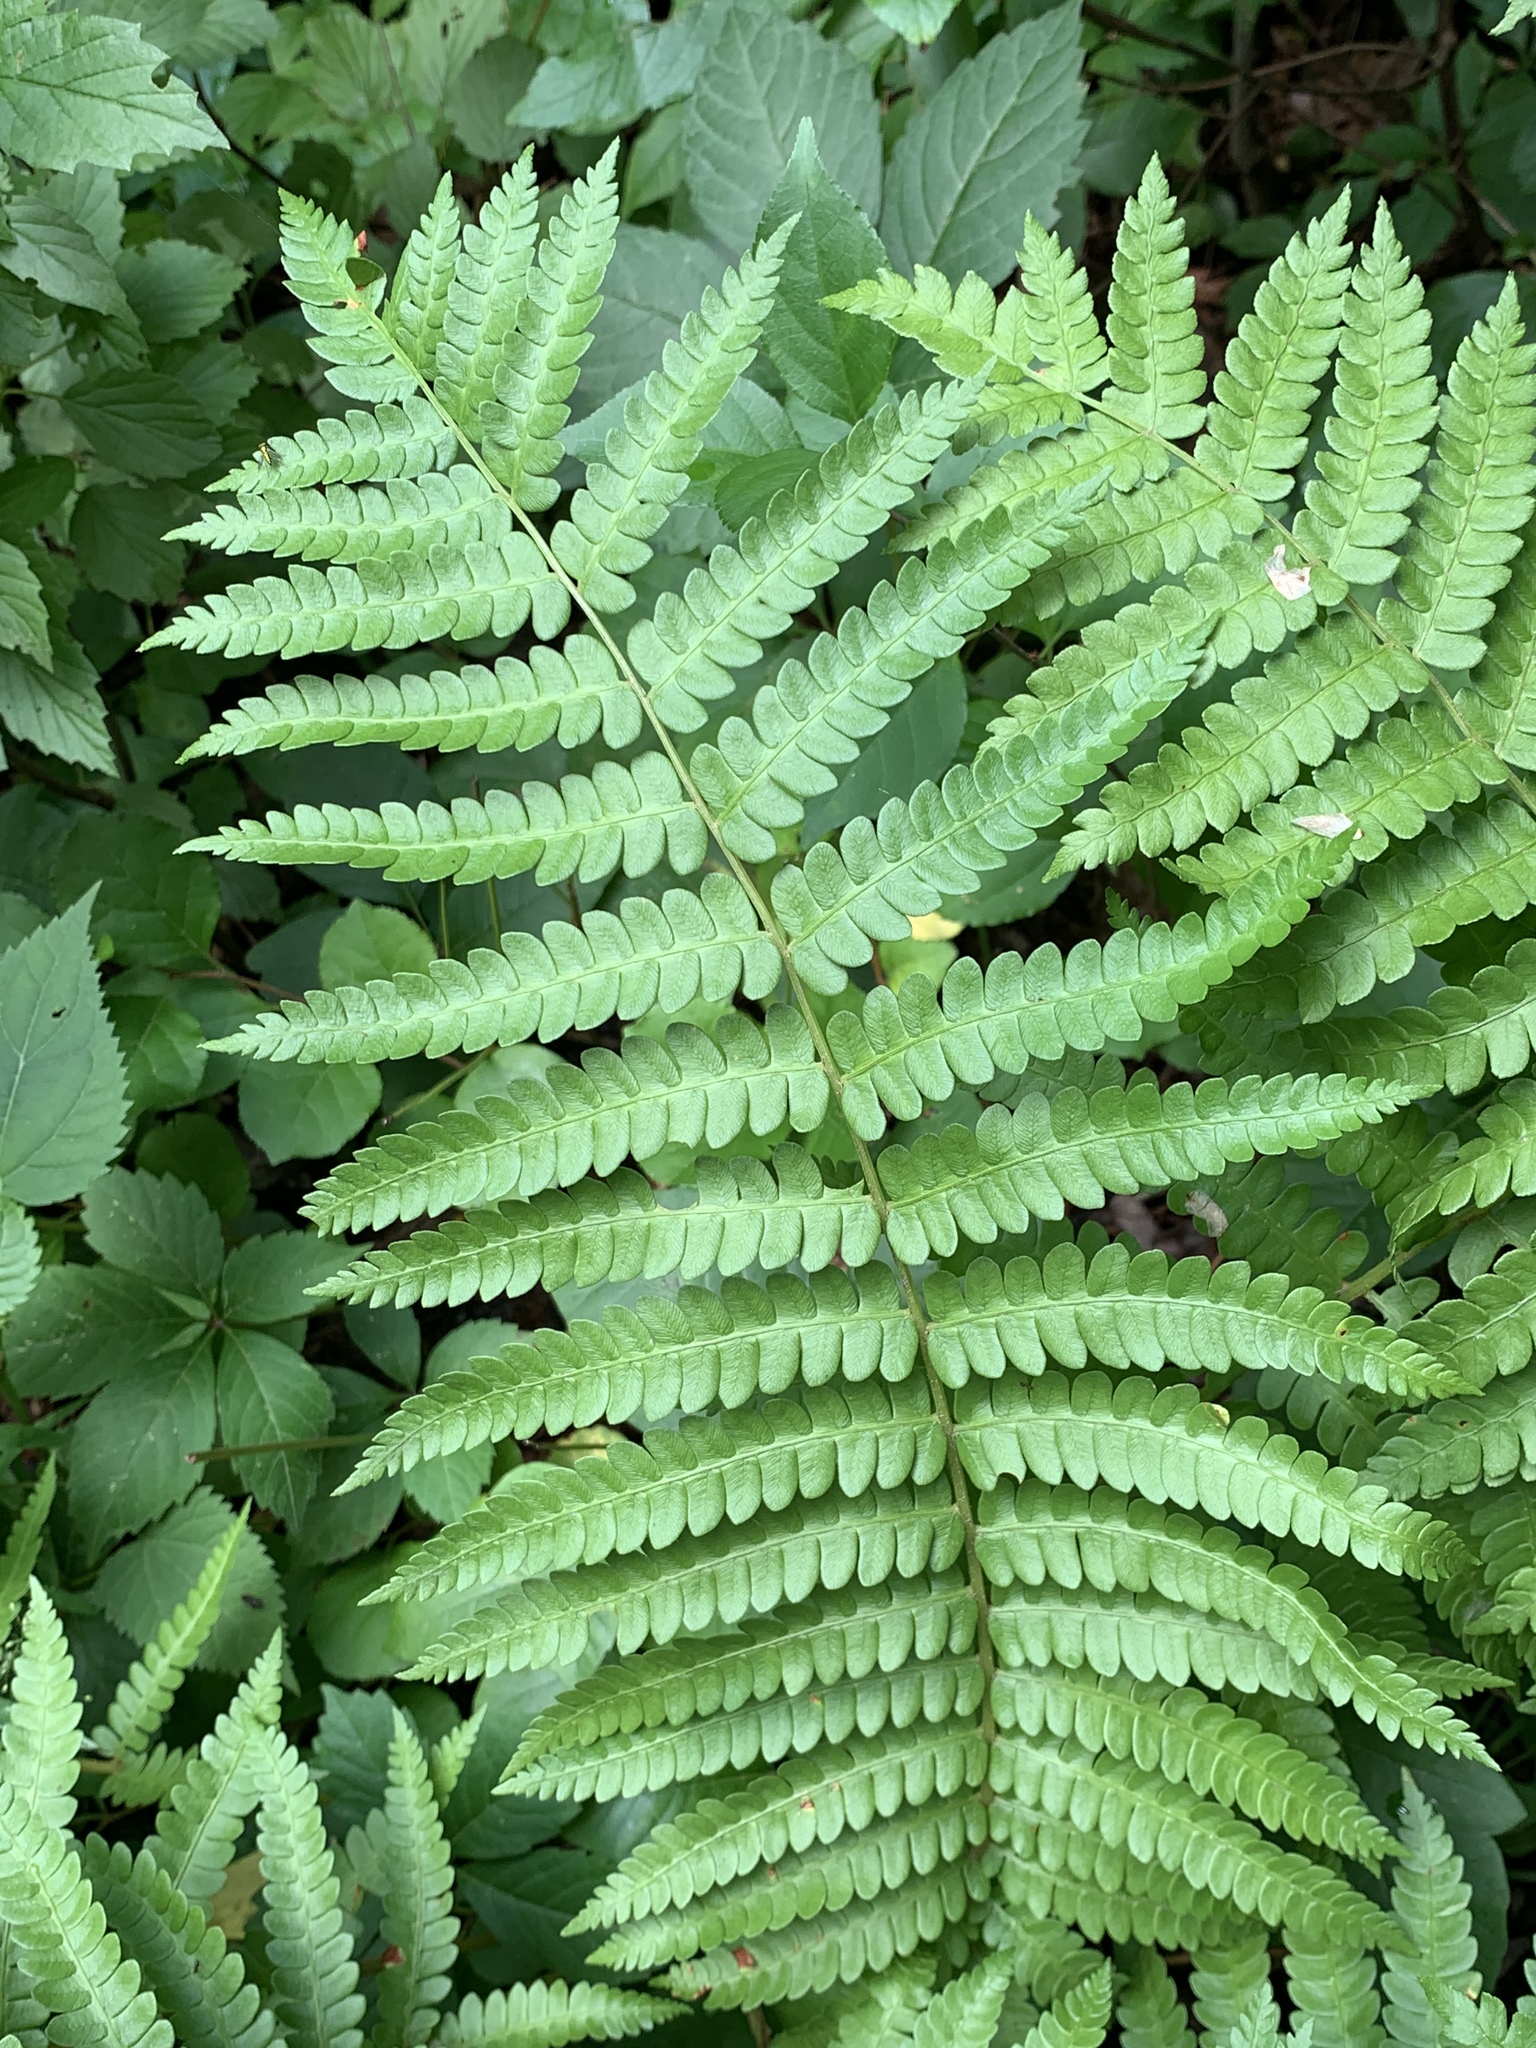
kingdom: Plantae
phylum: Tracheophyta
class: Polypodiopsida
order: Osmundales
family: Osmundaceae
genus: Osmundastrum
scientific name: Osmundastrum cinnamomeum
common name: Cinnamon fern
